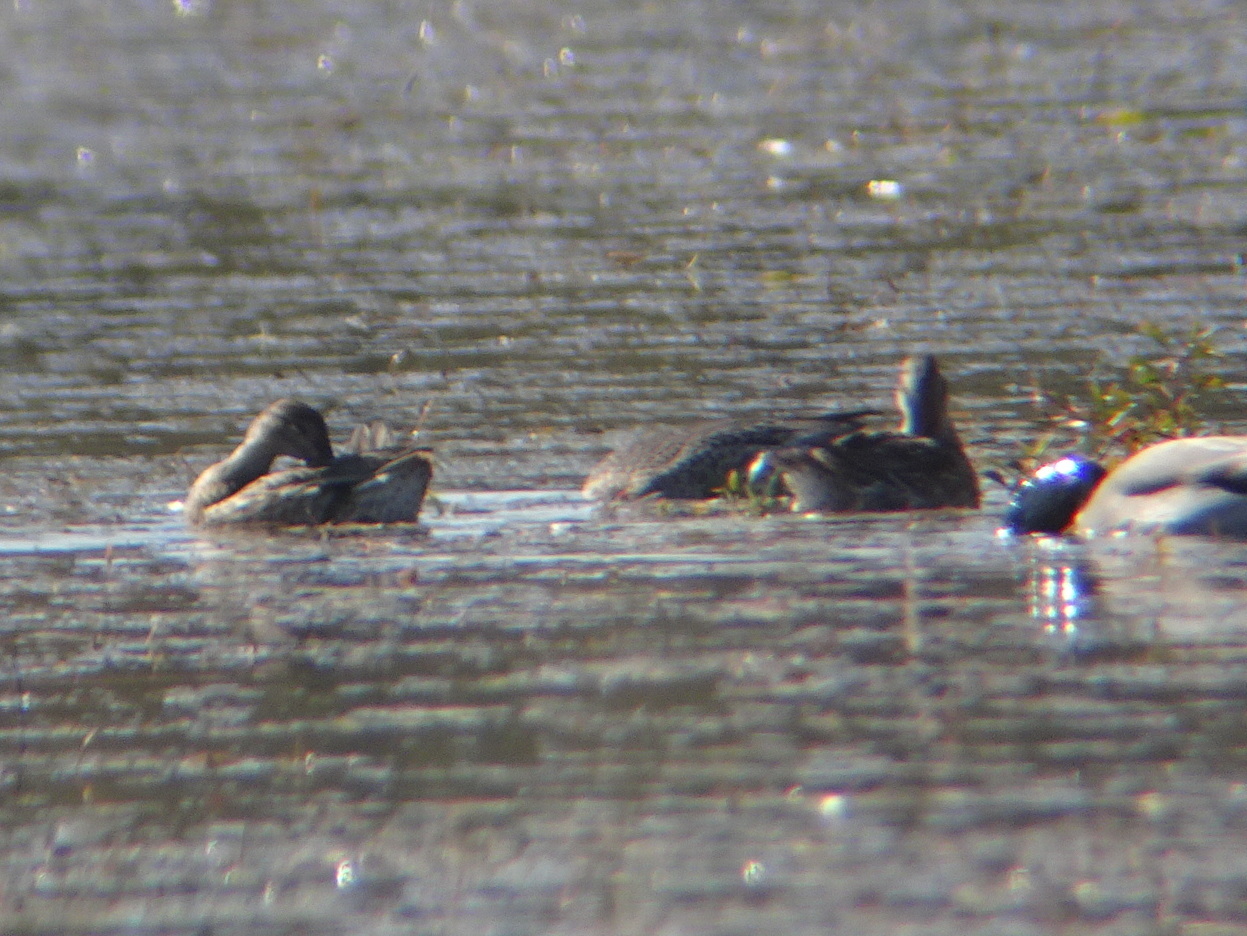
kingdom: Animalia
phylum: Chordata
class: Aves
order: Anseriformes
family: Anatidae
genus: Anas
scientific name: Anas acuta
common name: Northern pintail
